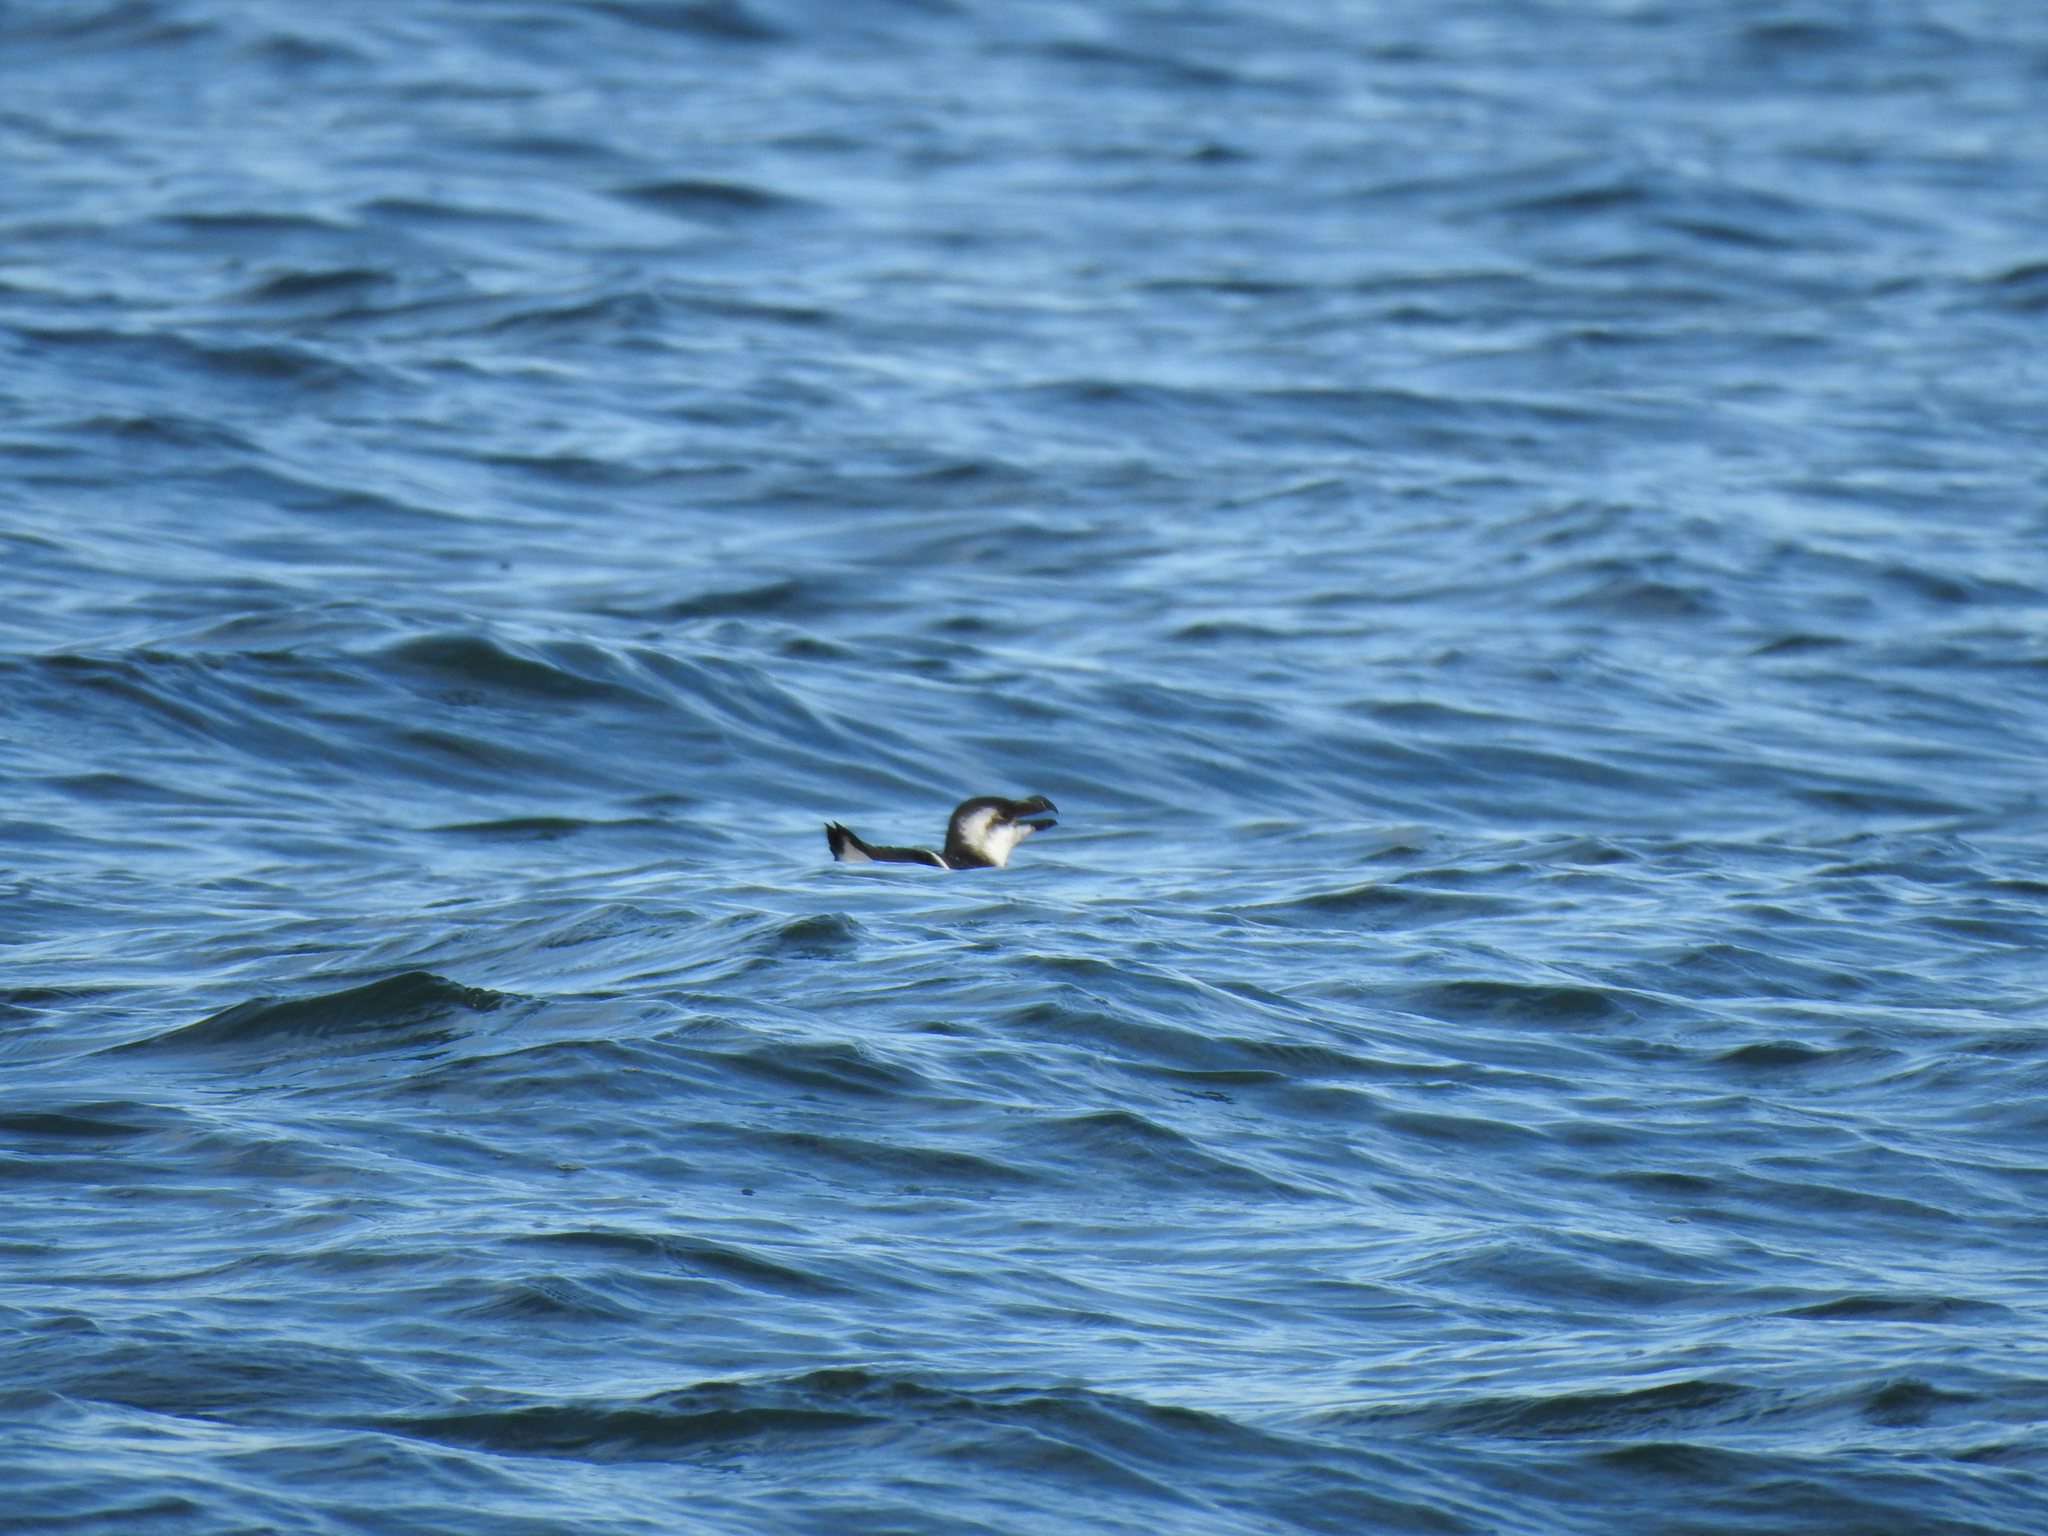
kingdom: Animalia
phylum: Chordata
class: Aves
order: Charadriiformes
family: Alcidae
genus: Alca
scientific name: Alca torda
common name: Razorbill
